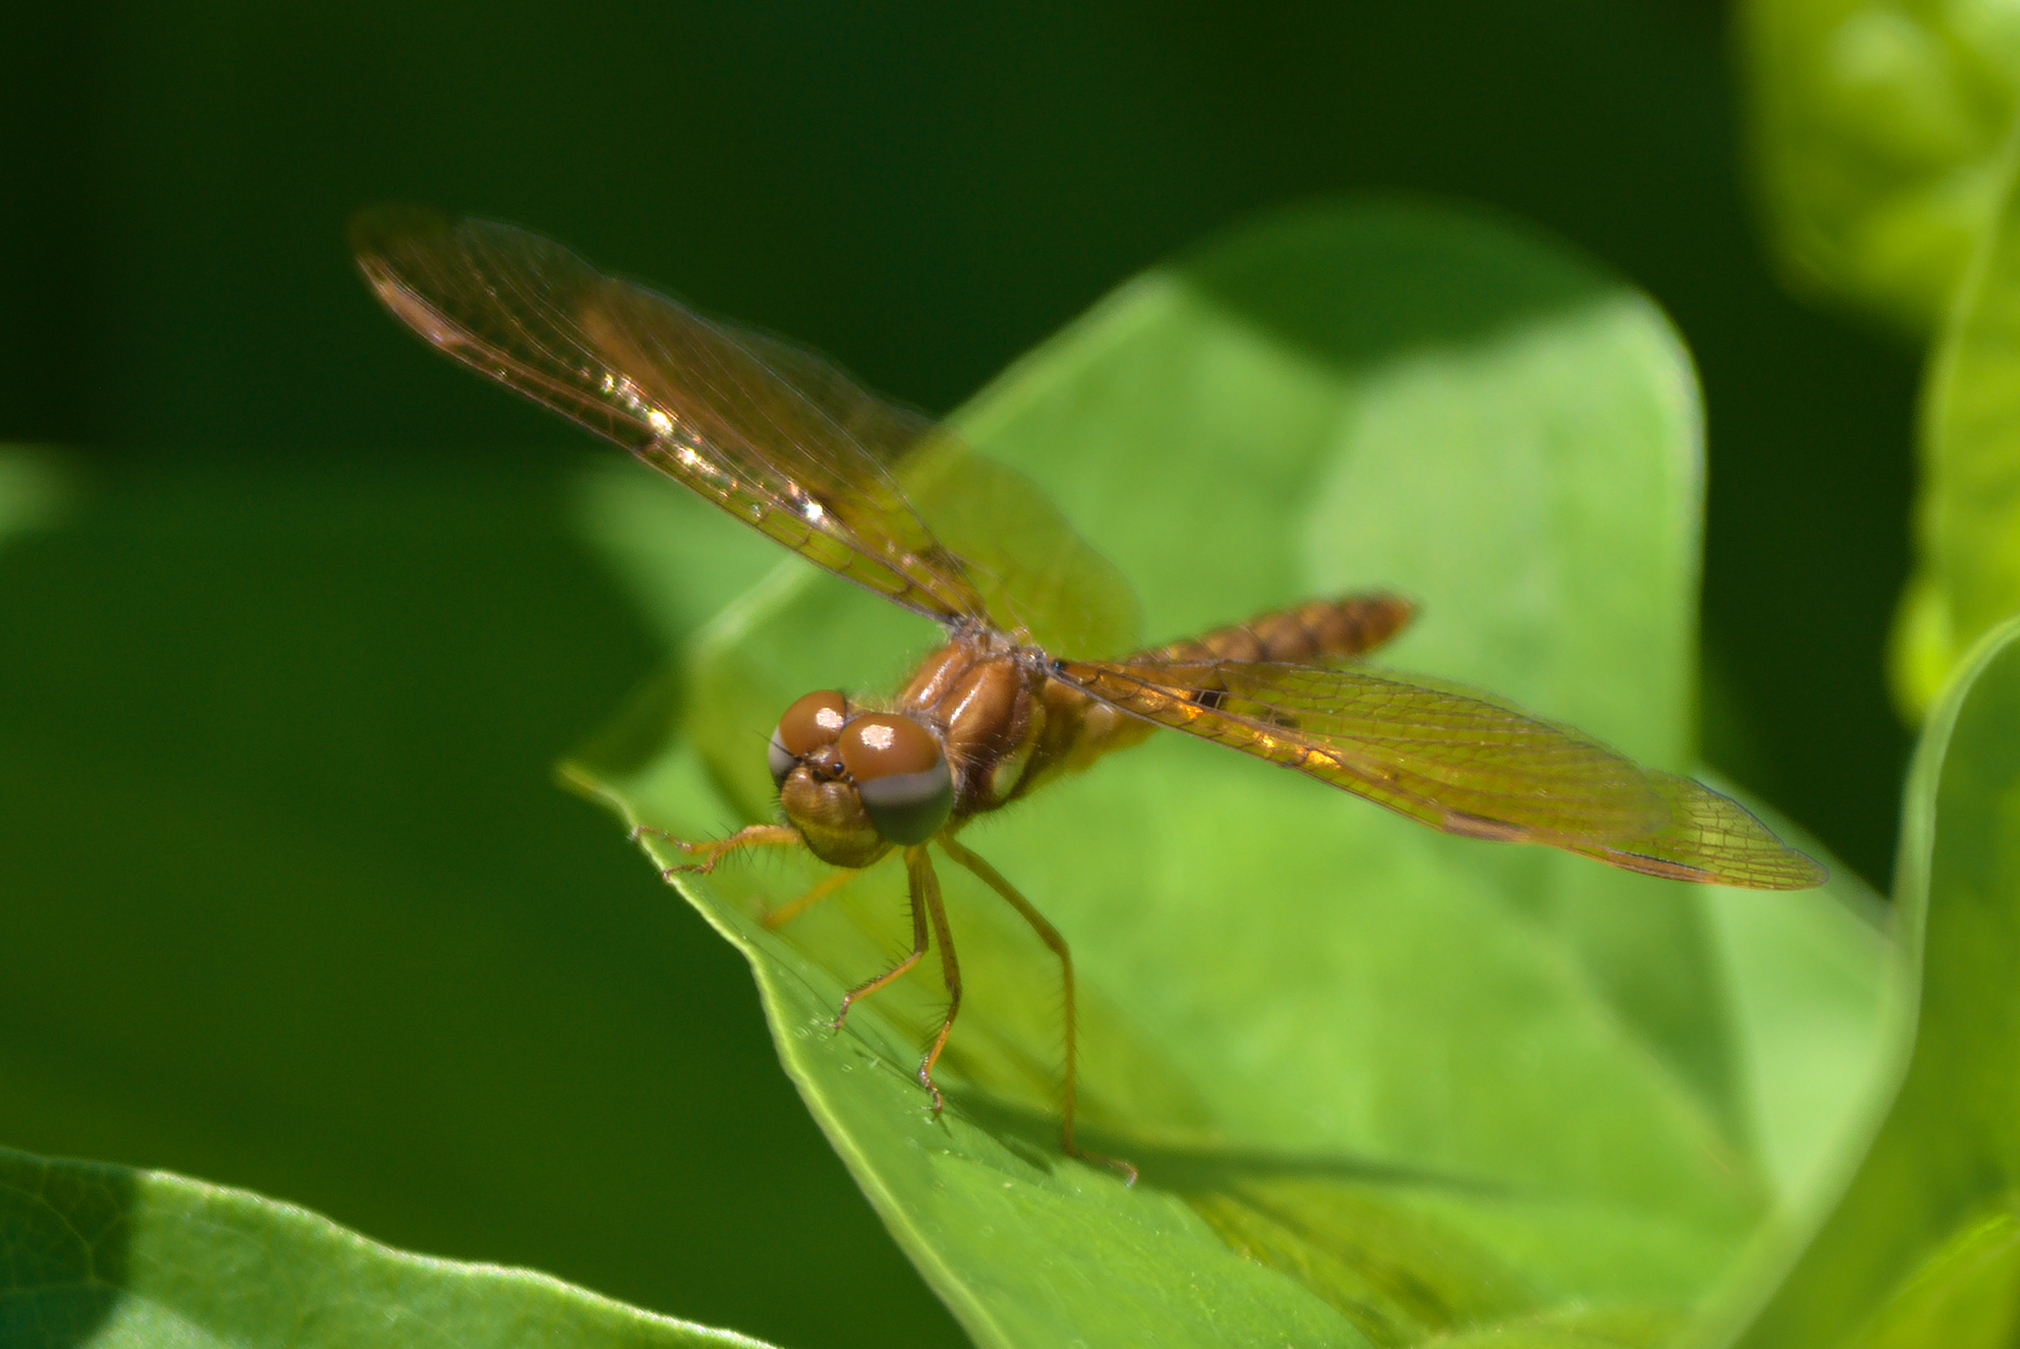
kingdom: Animalia
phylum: Arthropoda
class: Insecta
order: Odonata
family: Libellulidae
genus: Perithemis
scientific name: Perithemis tenera
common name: Eastern amberwing
